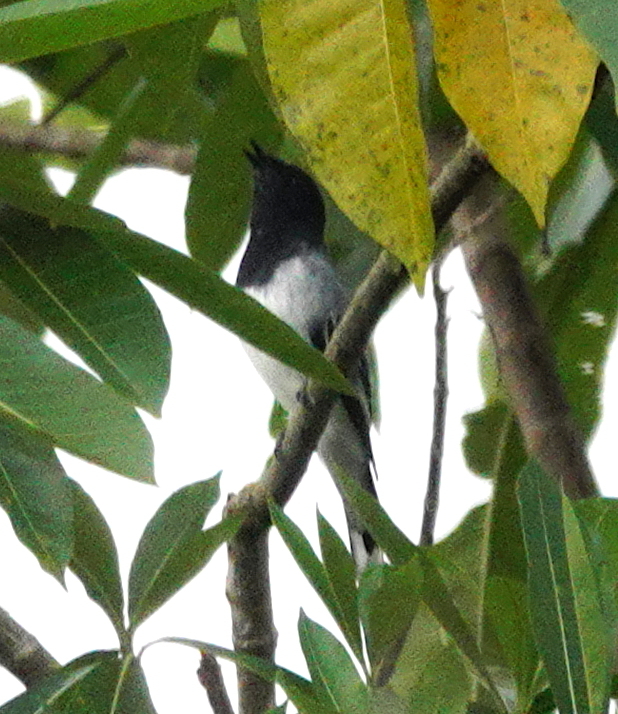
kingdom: Animalia
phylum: Chordata
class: Aves
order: Passeriformes
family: Campephagidae
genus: Coracina
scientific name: Coracina melanoptera
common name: Black-headed cuckooshrike
